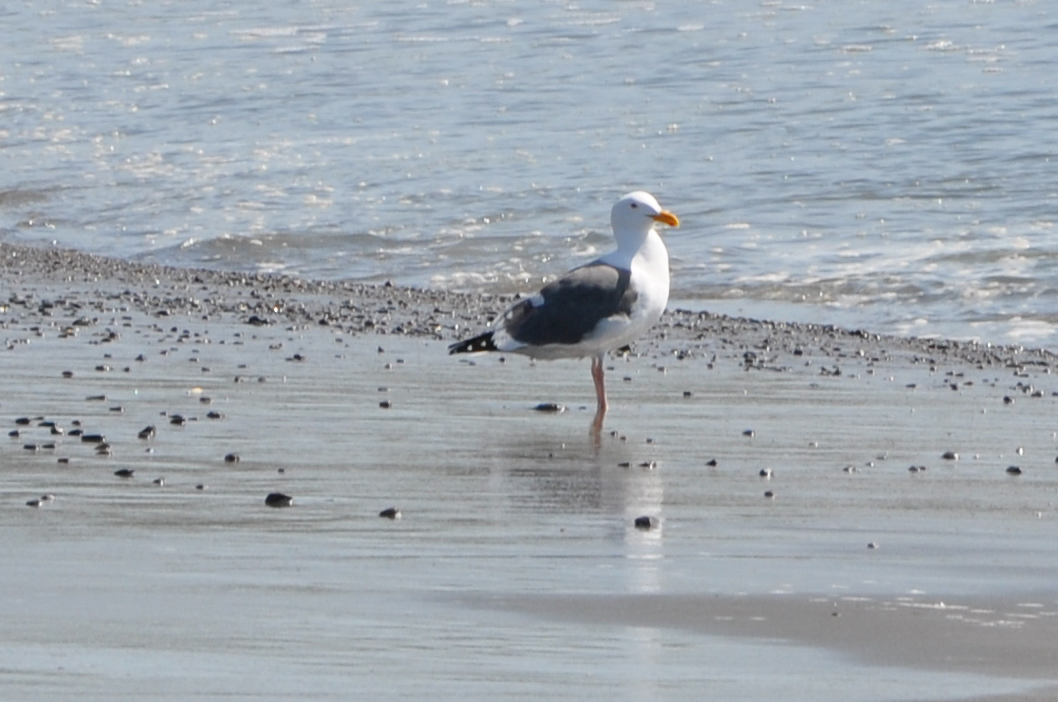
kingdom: Animalia
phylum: Chordata
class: Aves
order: Charadriiformes
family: Laridae
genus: Larus
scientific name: Larus occidentalis
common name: Western gull
